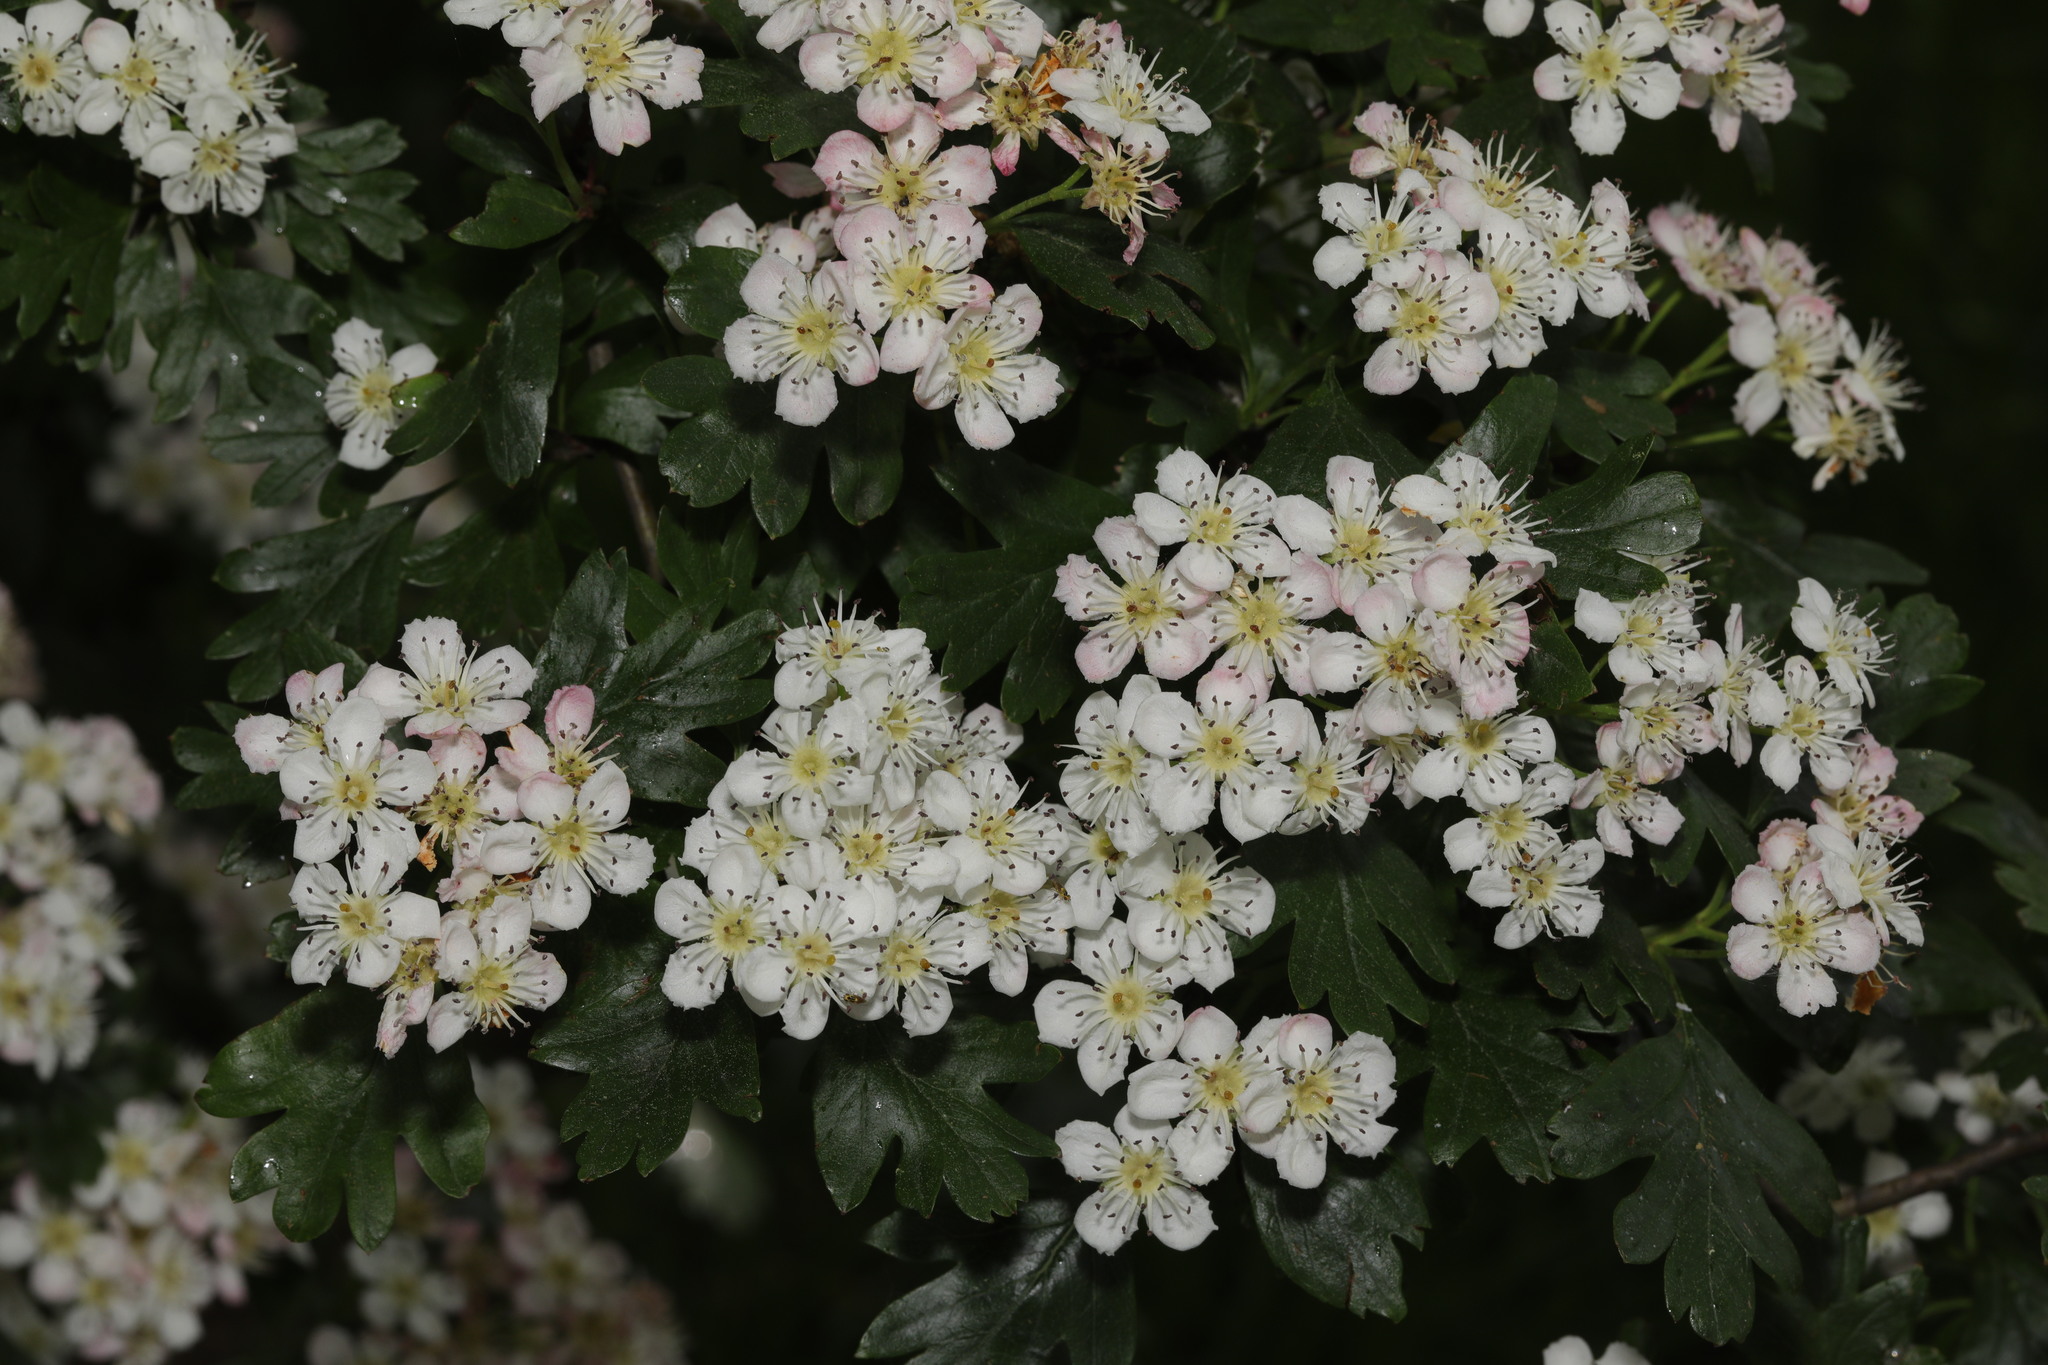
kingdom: Plantae
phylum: Tracheophyta
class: Magnoliopsida
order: Rosales
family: Rosaceae
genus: Crataegus
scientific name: Crataegus monogyna
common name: Hawthorn
